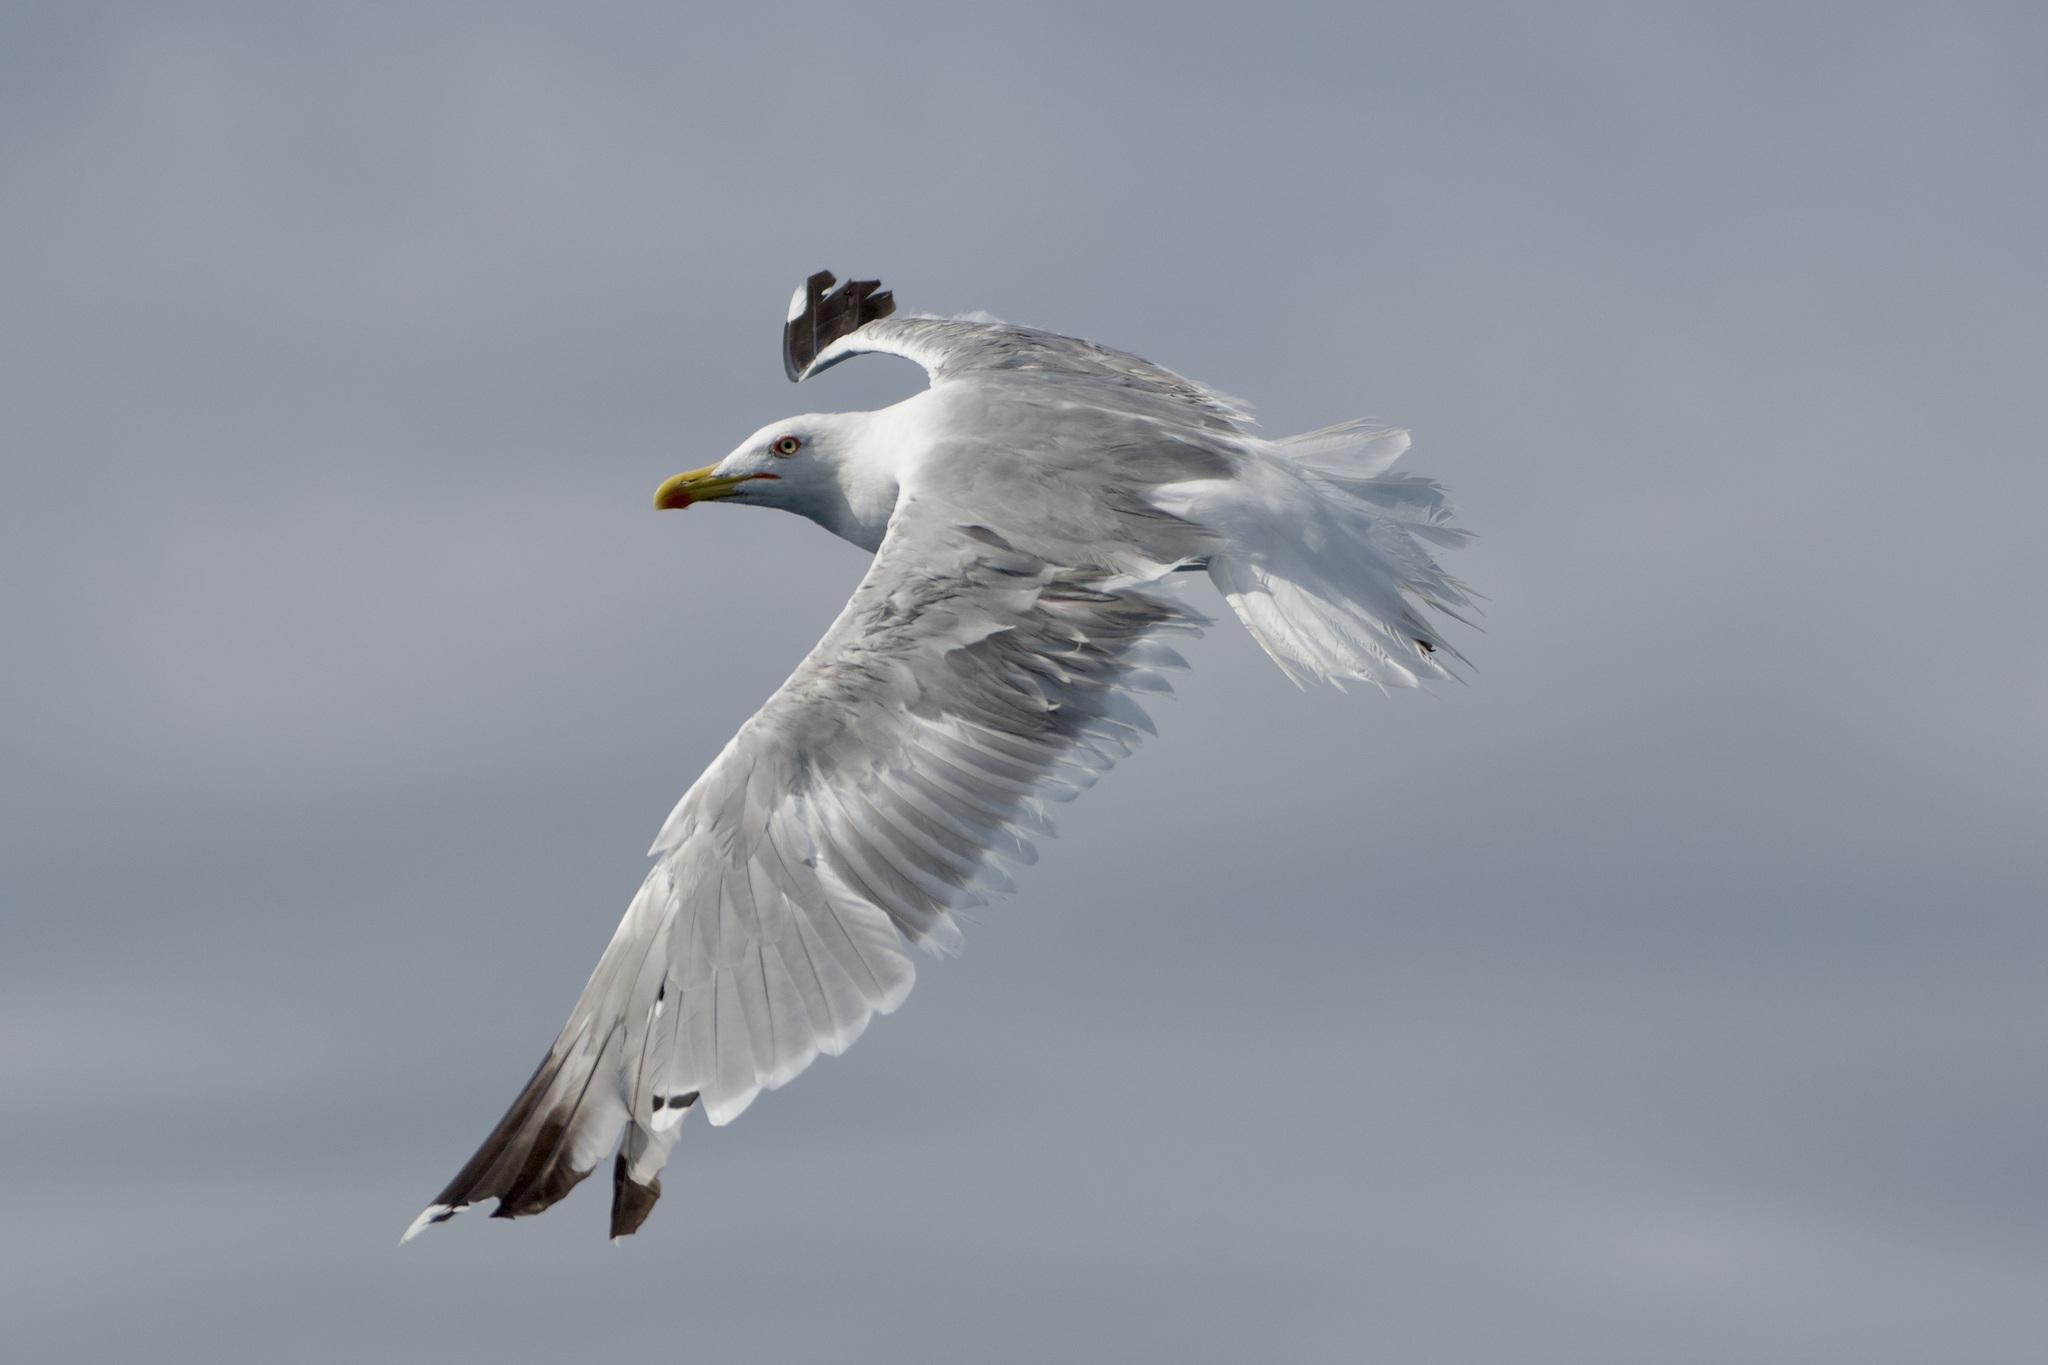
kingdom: Animalia
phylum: Chordata
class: Aves
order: Charadriiformes
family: Laridae
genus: Larus
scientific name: Larus michahellis
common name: Yellow-legged gull
